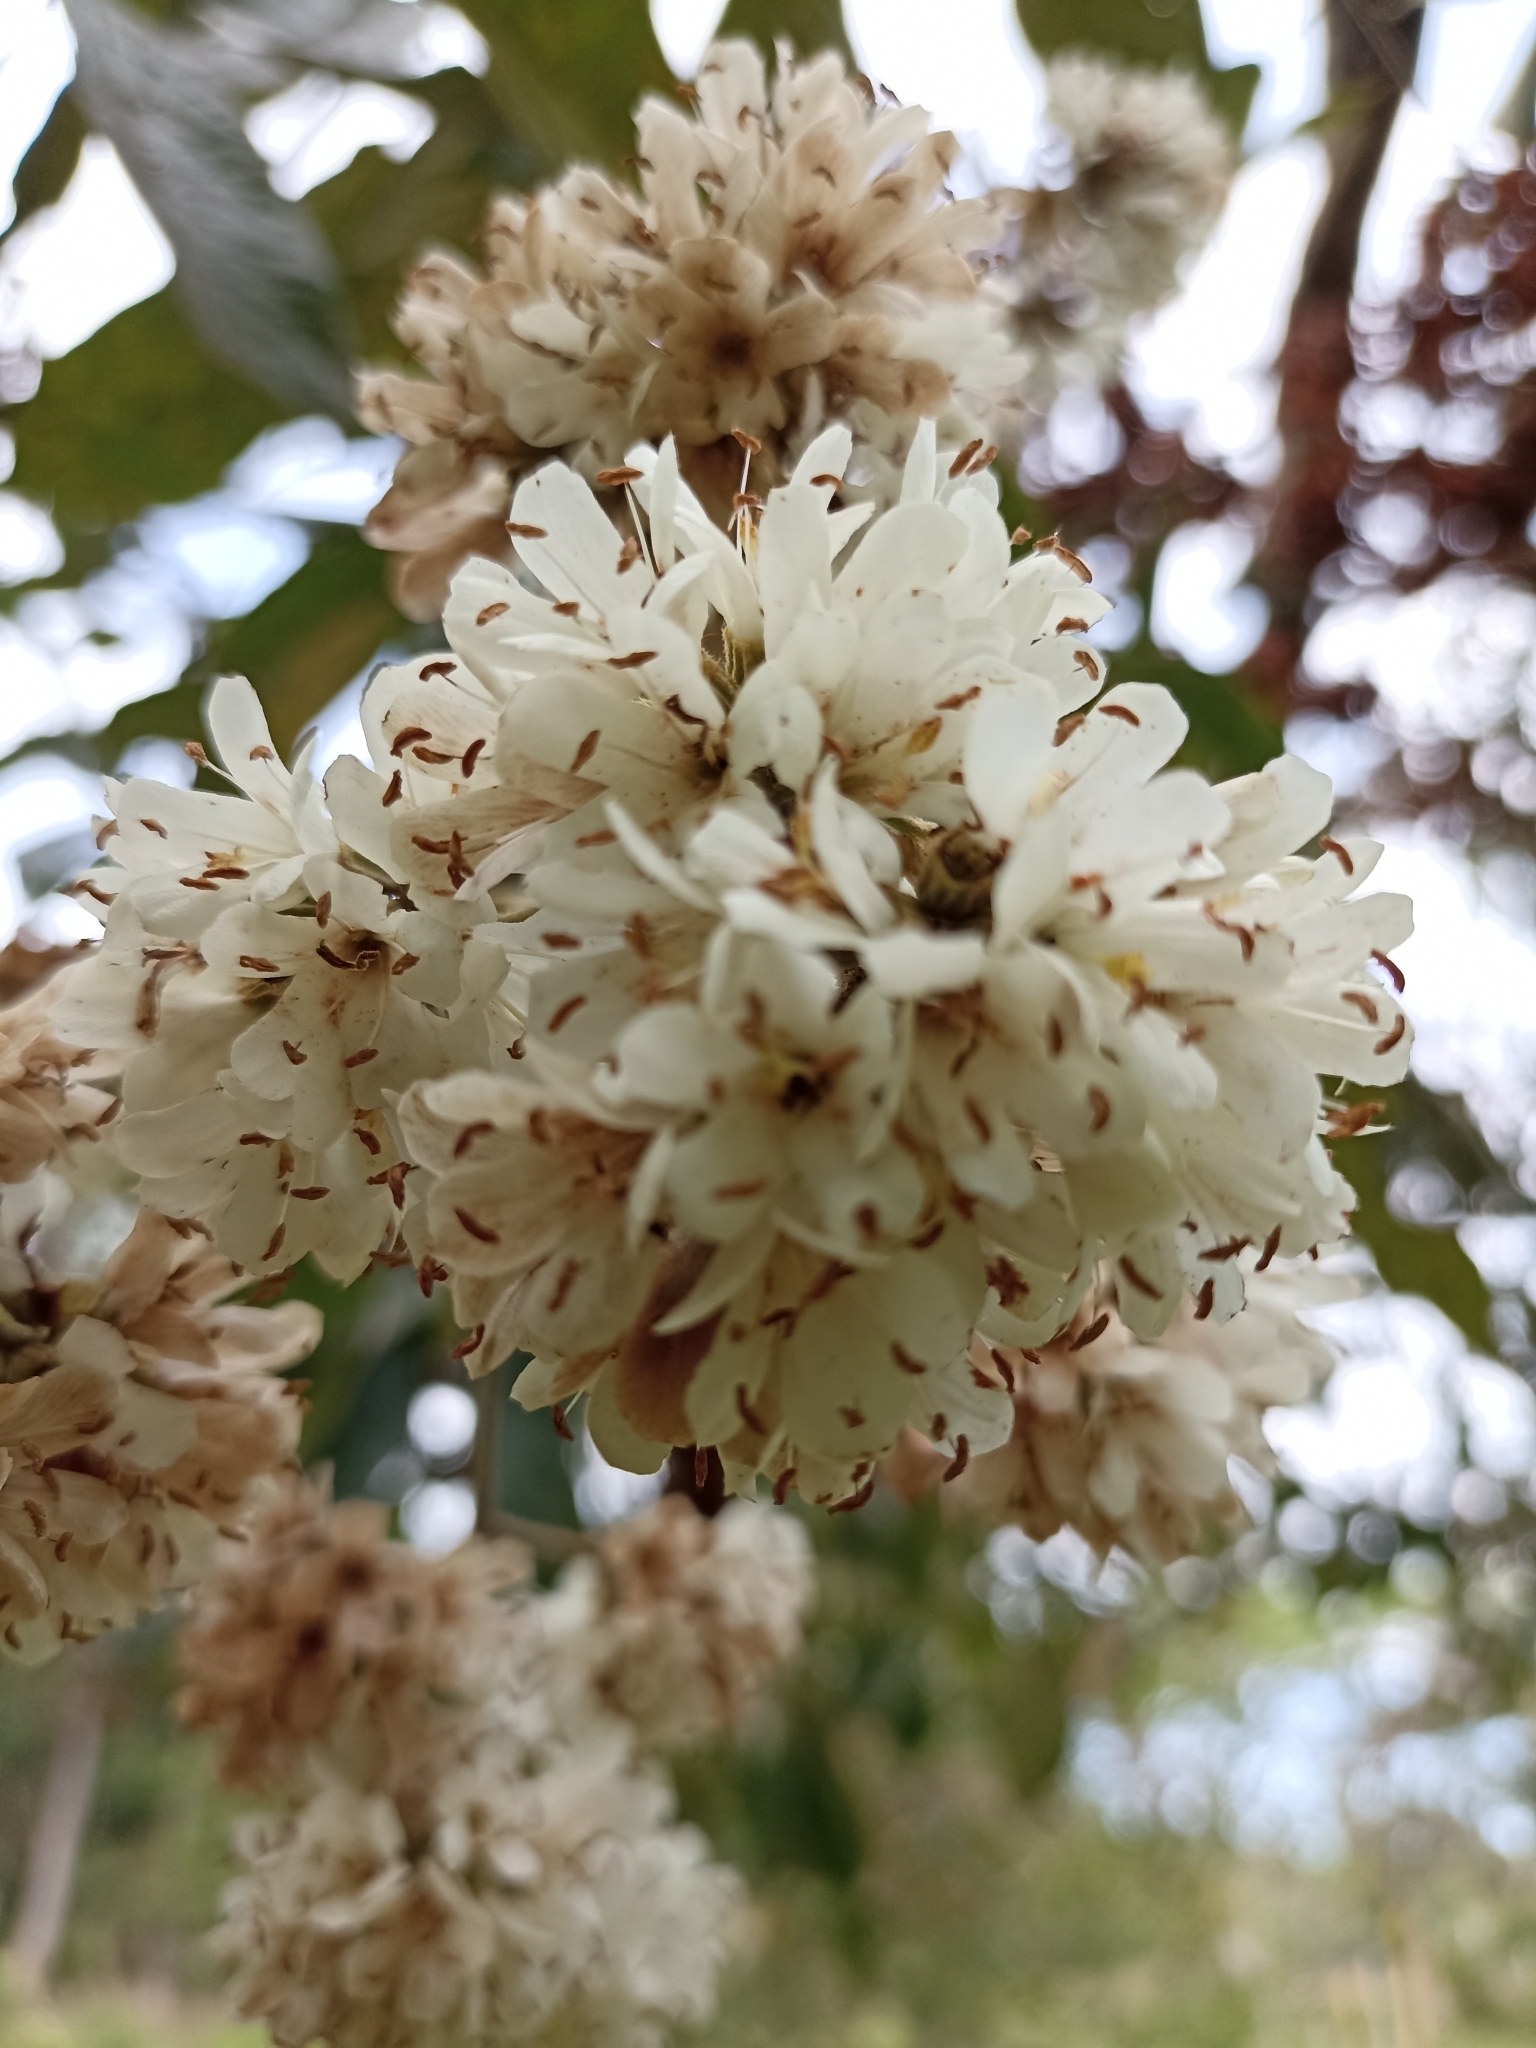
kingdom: Plantae
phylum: Tracheophyta
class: Magnoliopsida
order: Boraginales
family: Cordiaceae
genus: Cordia
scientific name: Cordia alliodora
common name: Spanish elm
